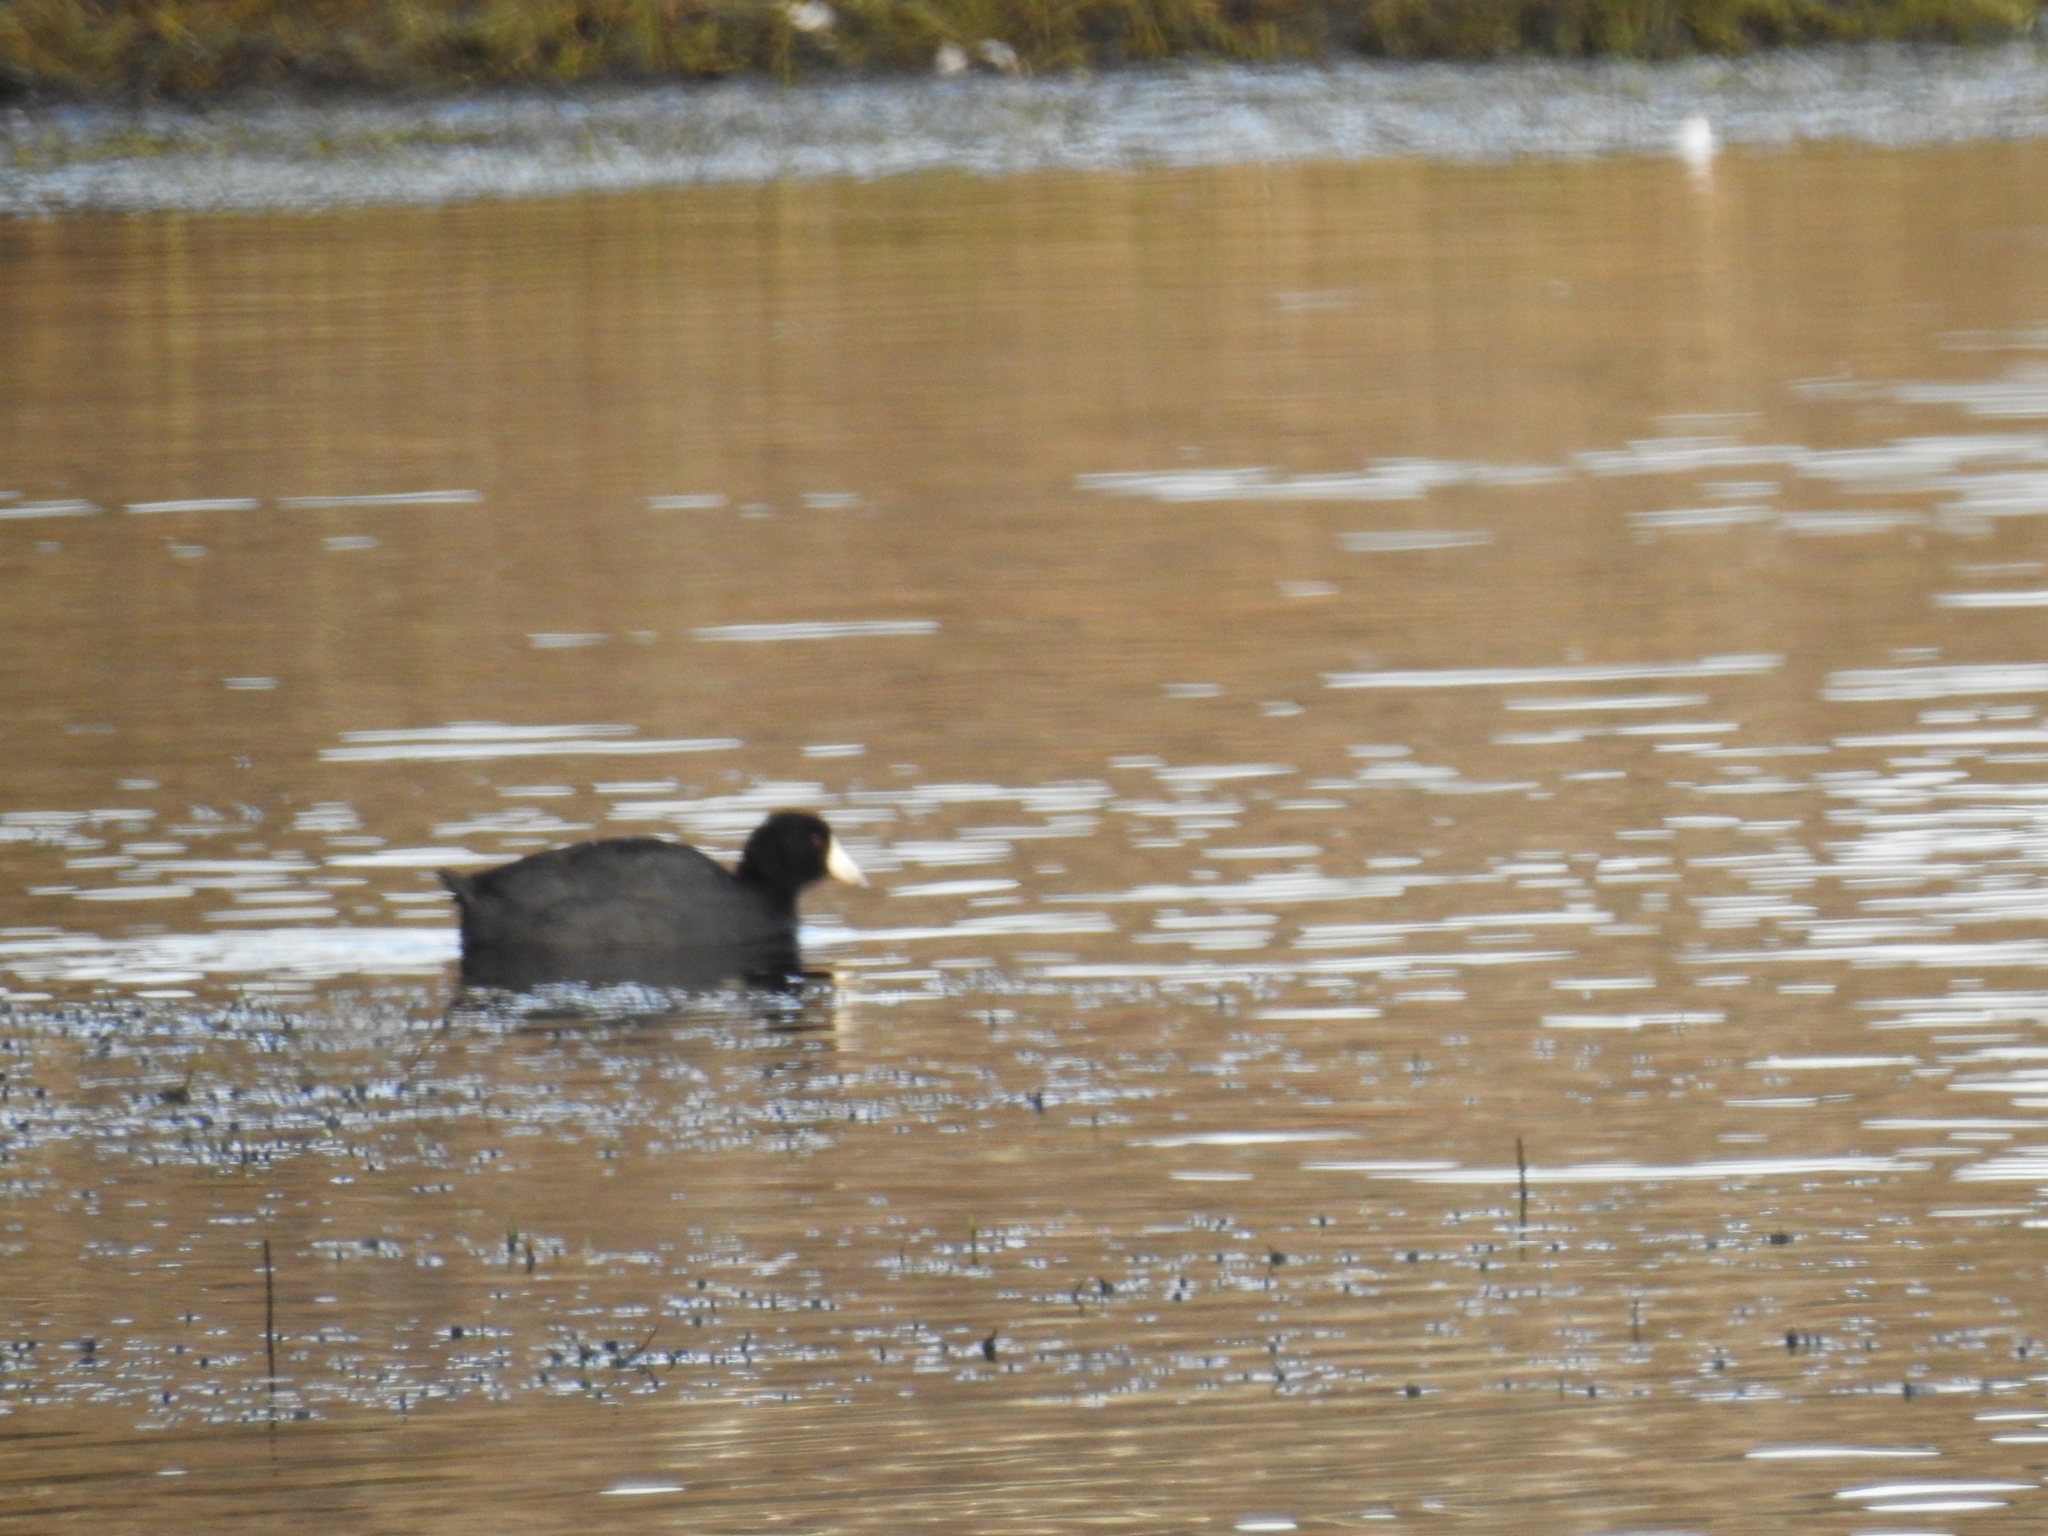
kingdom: Animalia
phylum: Chordata
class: Aves
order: Gruiformes
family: Rallidae
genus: Fulica
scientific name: Fulica americana
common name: American coot
